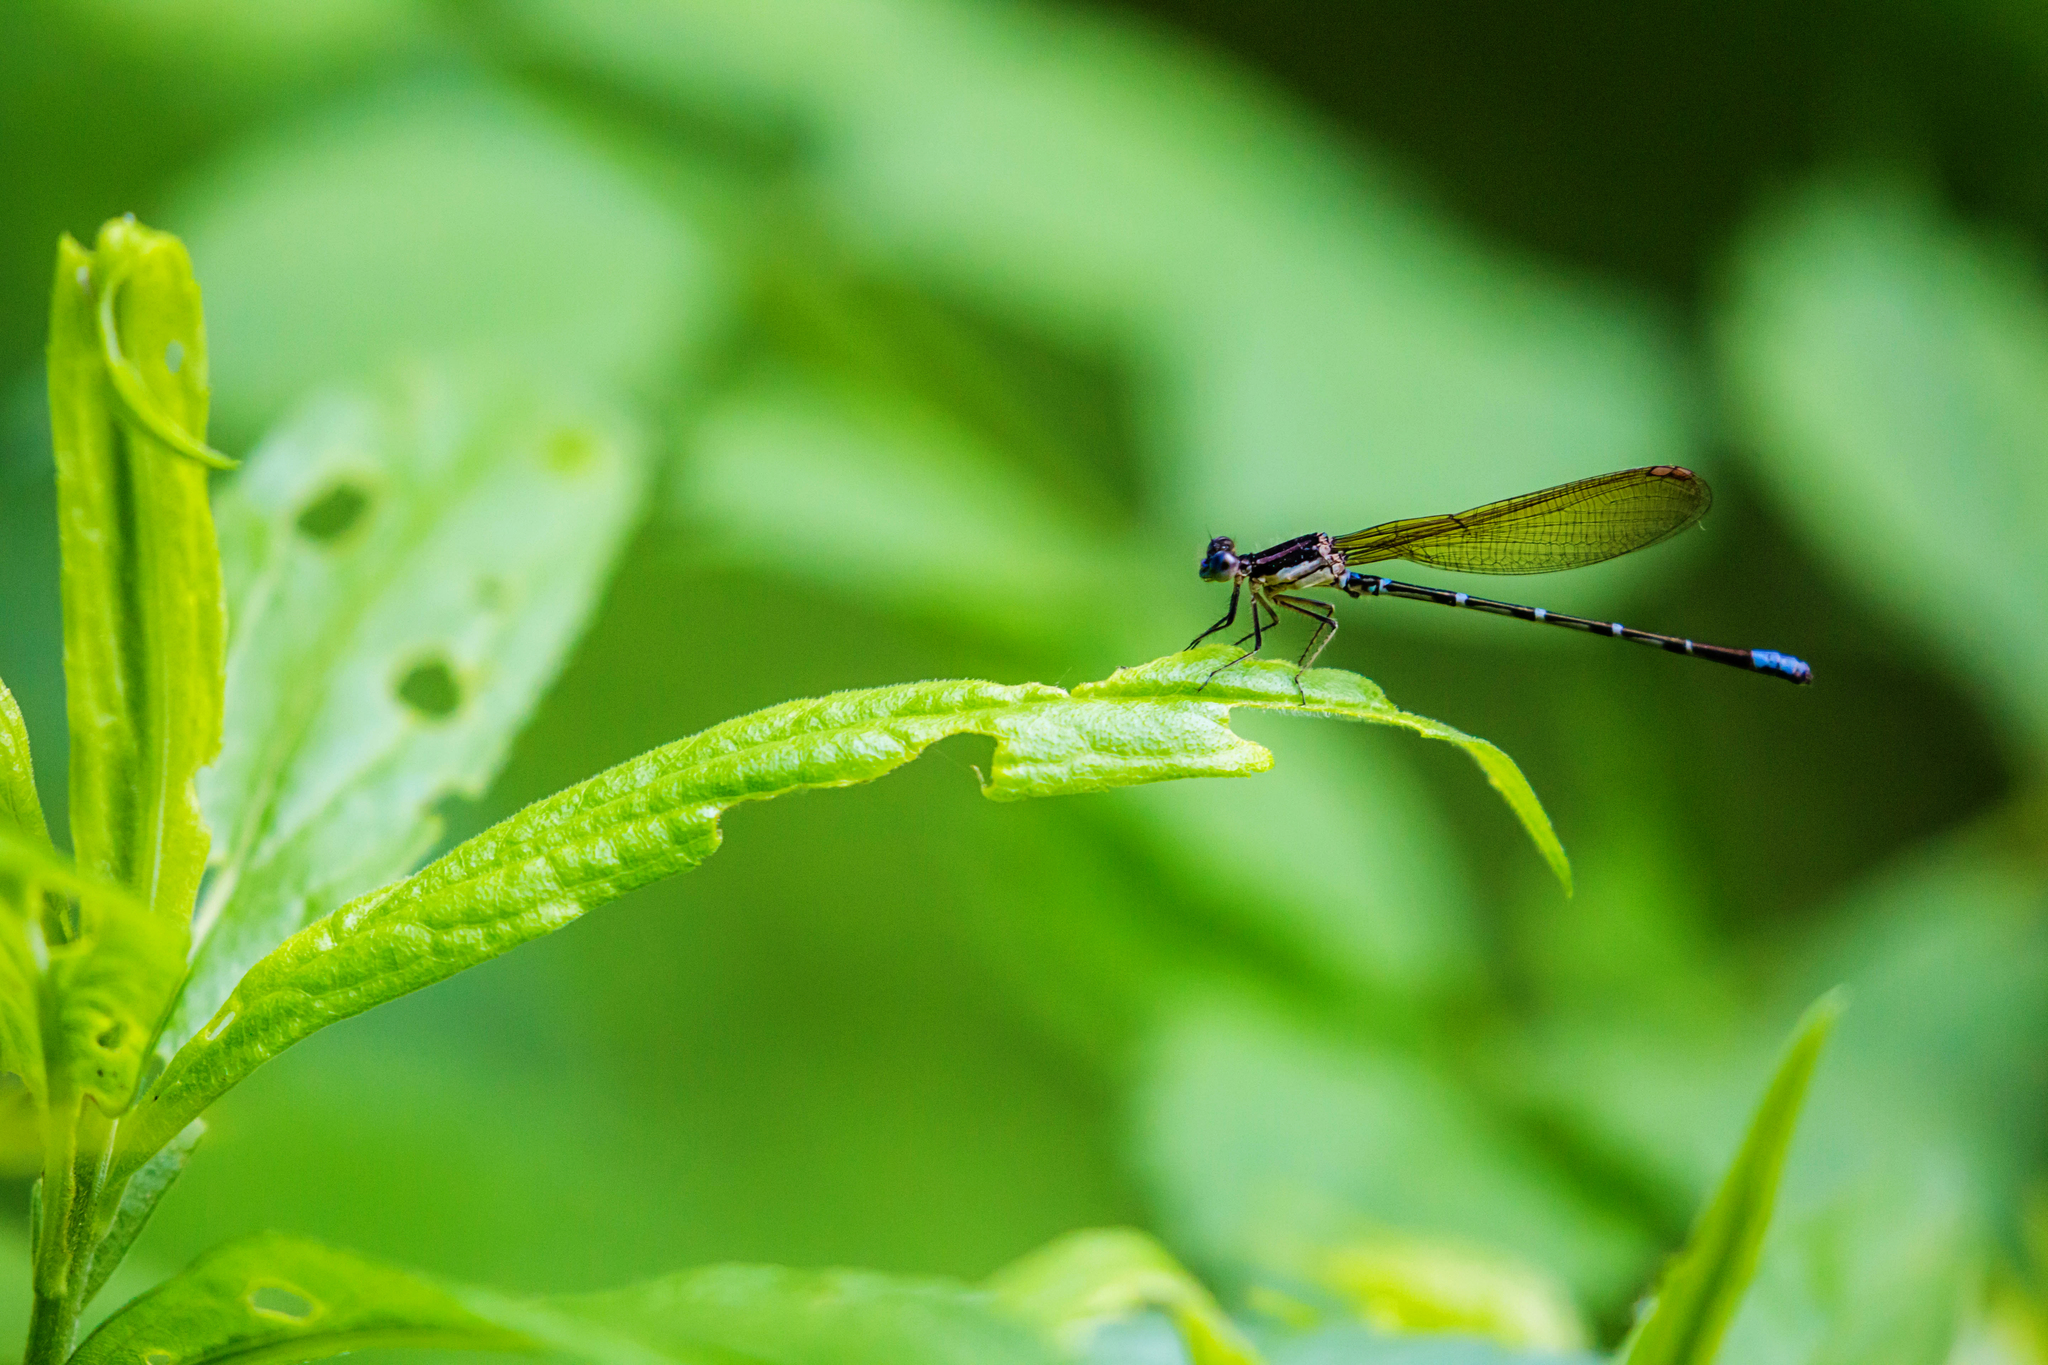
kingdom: Animalia
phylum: Arthropoda
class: Insecta
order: Odonata
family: Coenagrionidae
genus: Argia
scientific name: Argia sedula
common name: Blue-ringed dancer
